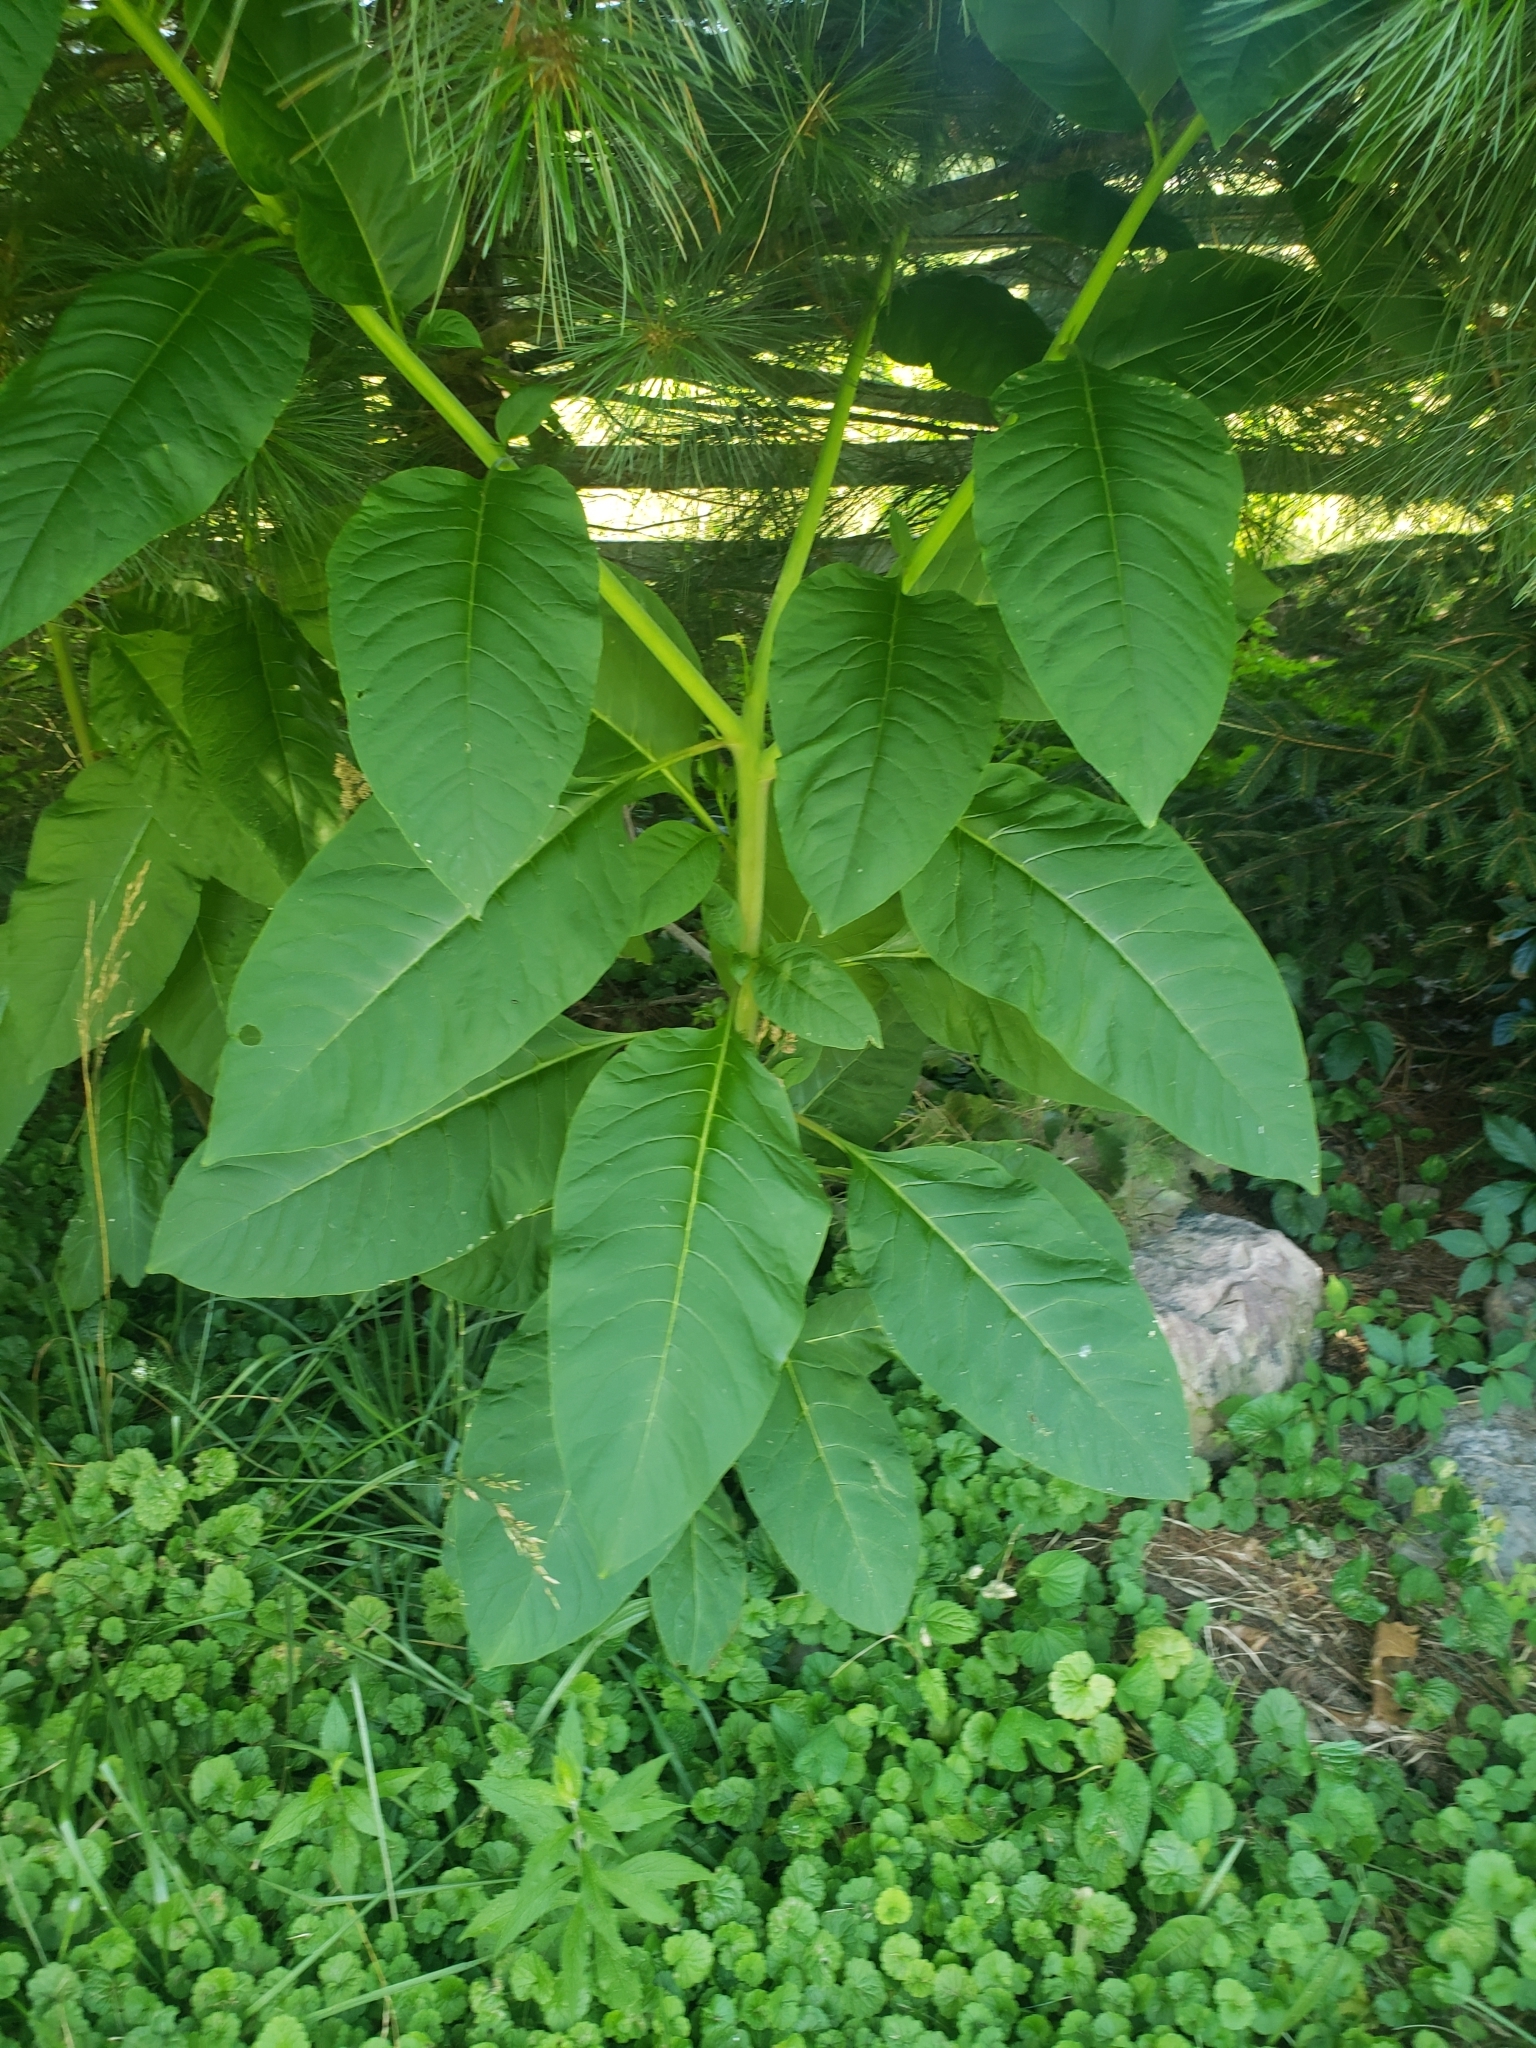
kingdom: Plantae
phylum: Tracheophyta
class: Magnoliopsida
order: Caryophyllales
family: Phytolaccaceae
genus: Phytolacca
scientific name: Phytolacca americana
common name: American pokeweed
